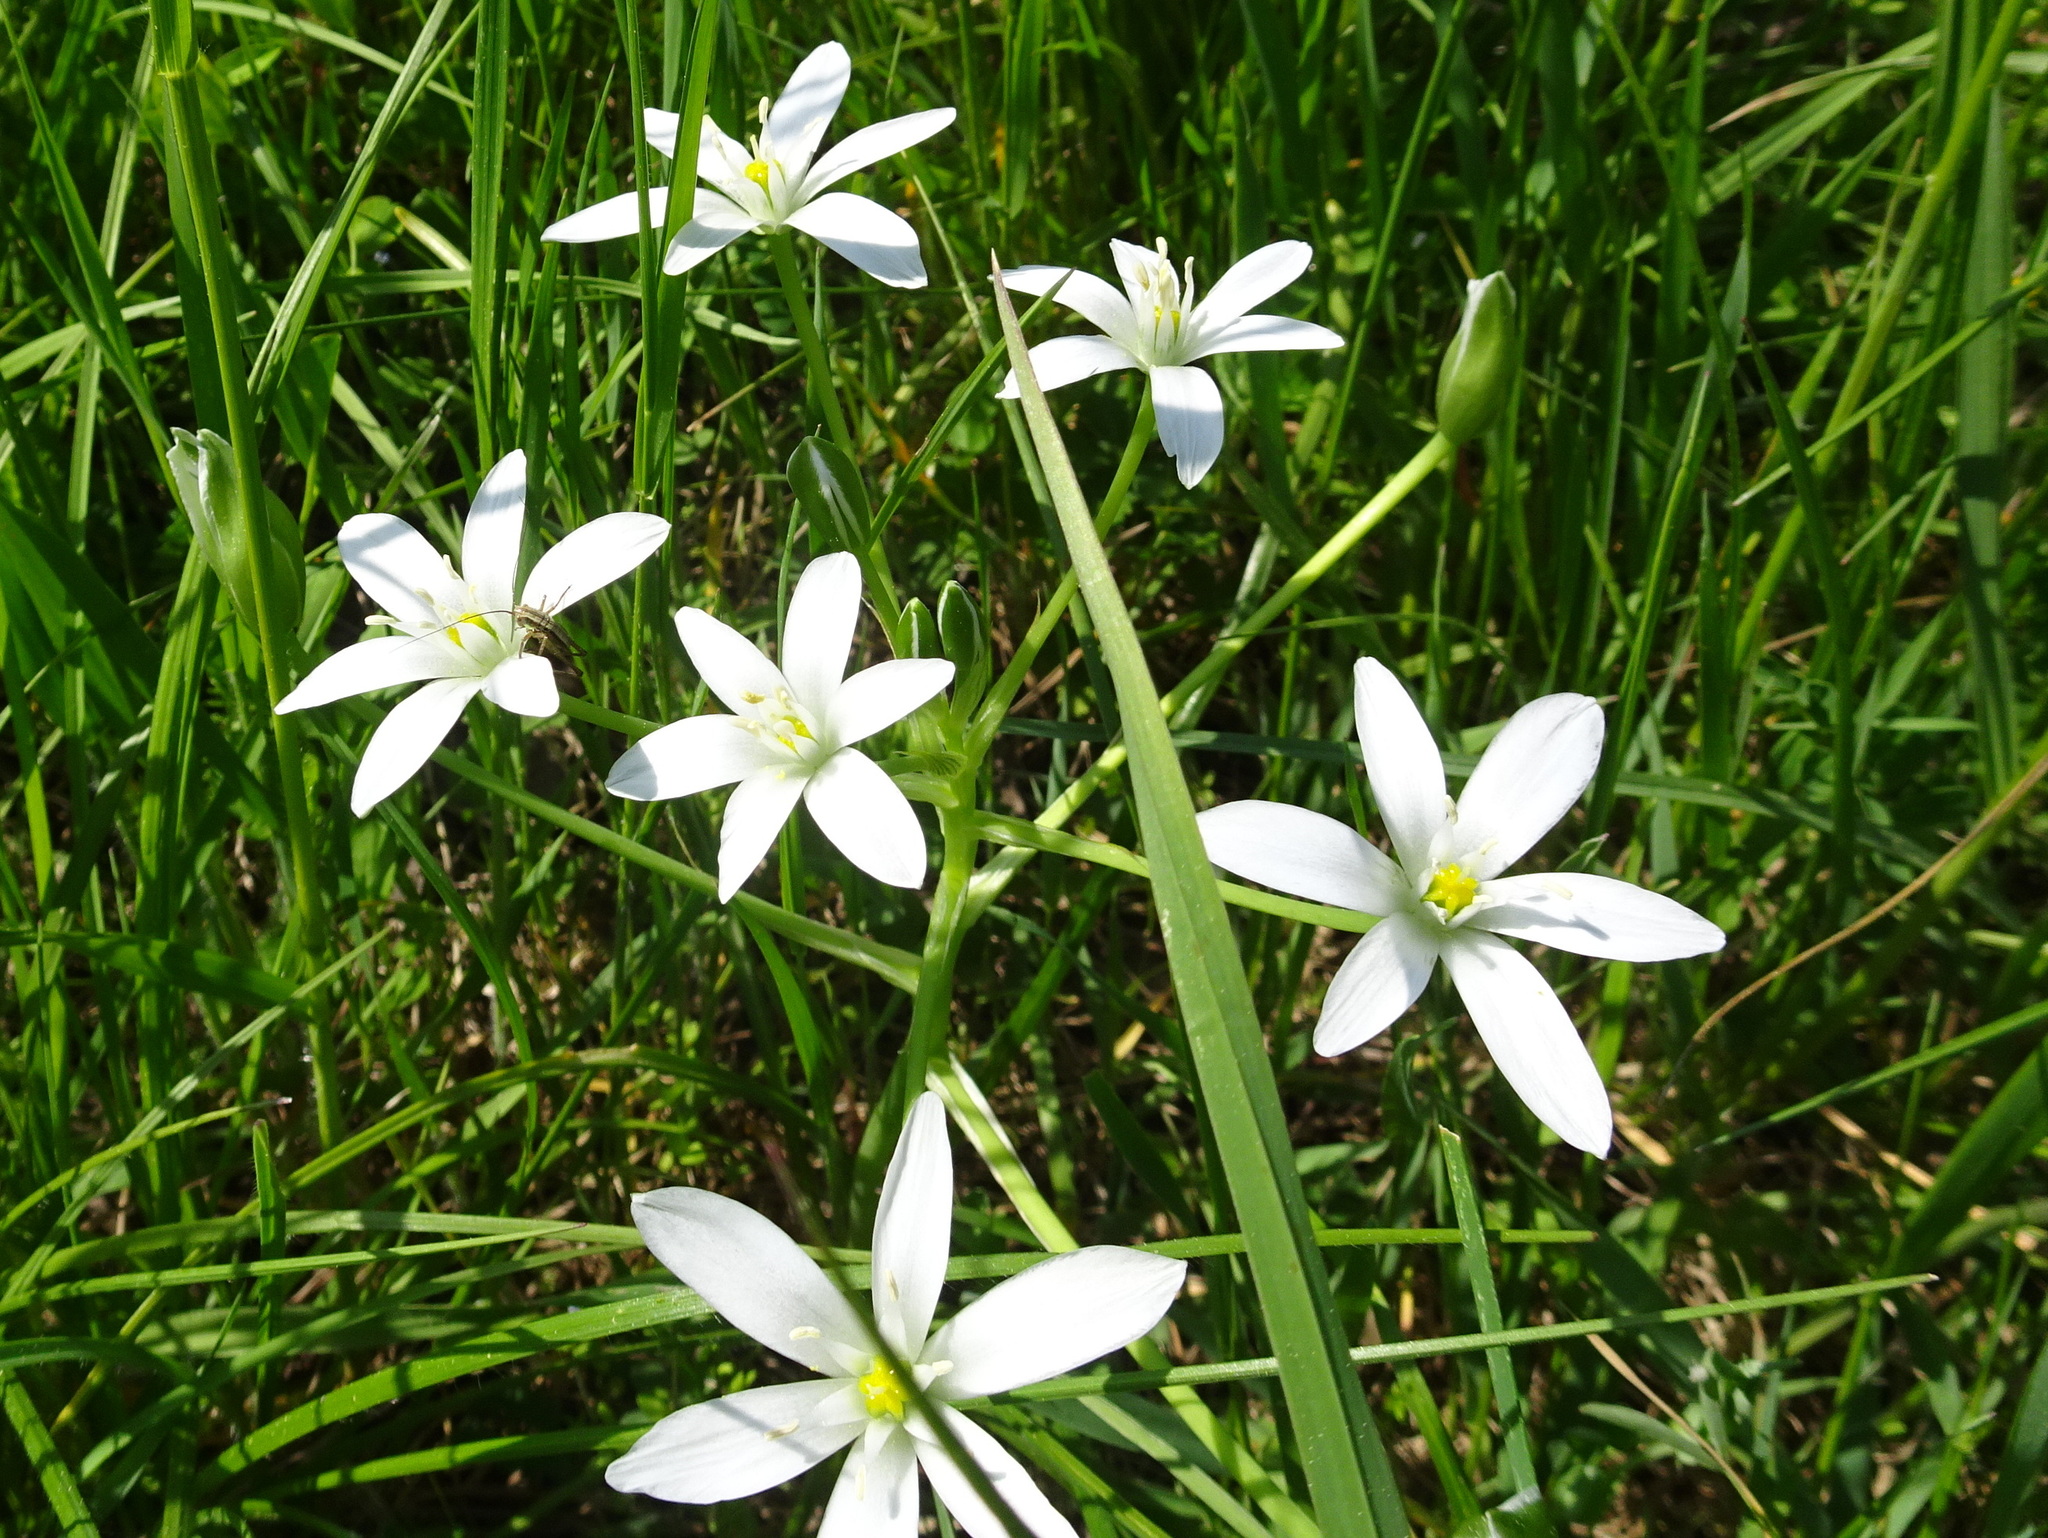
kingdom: Plantae
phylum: Tracheophyta
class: Liliopsida
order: Asparagales
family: Asparagaceae
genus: Ornithogalum
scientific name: Ornithogalum umbellatum
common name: Garden star-of-bethlehem
